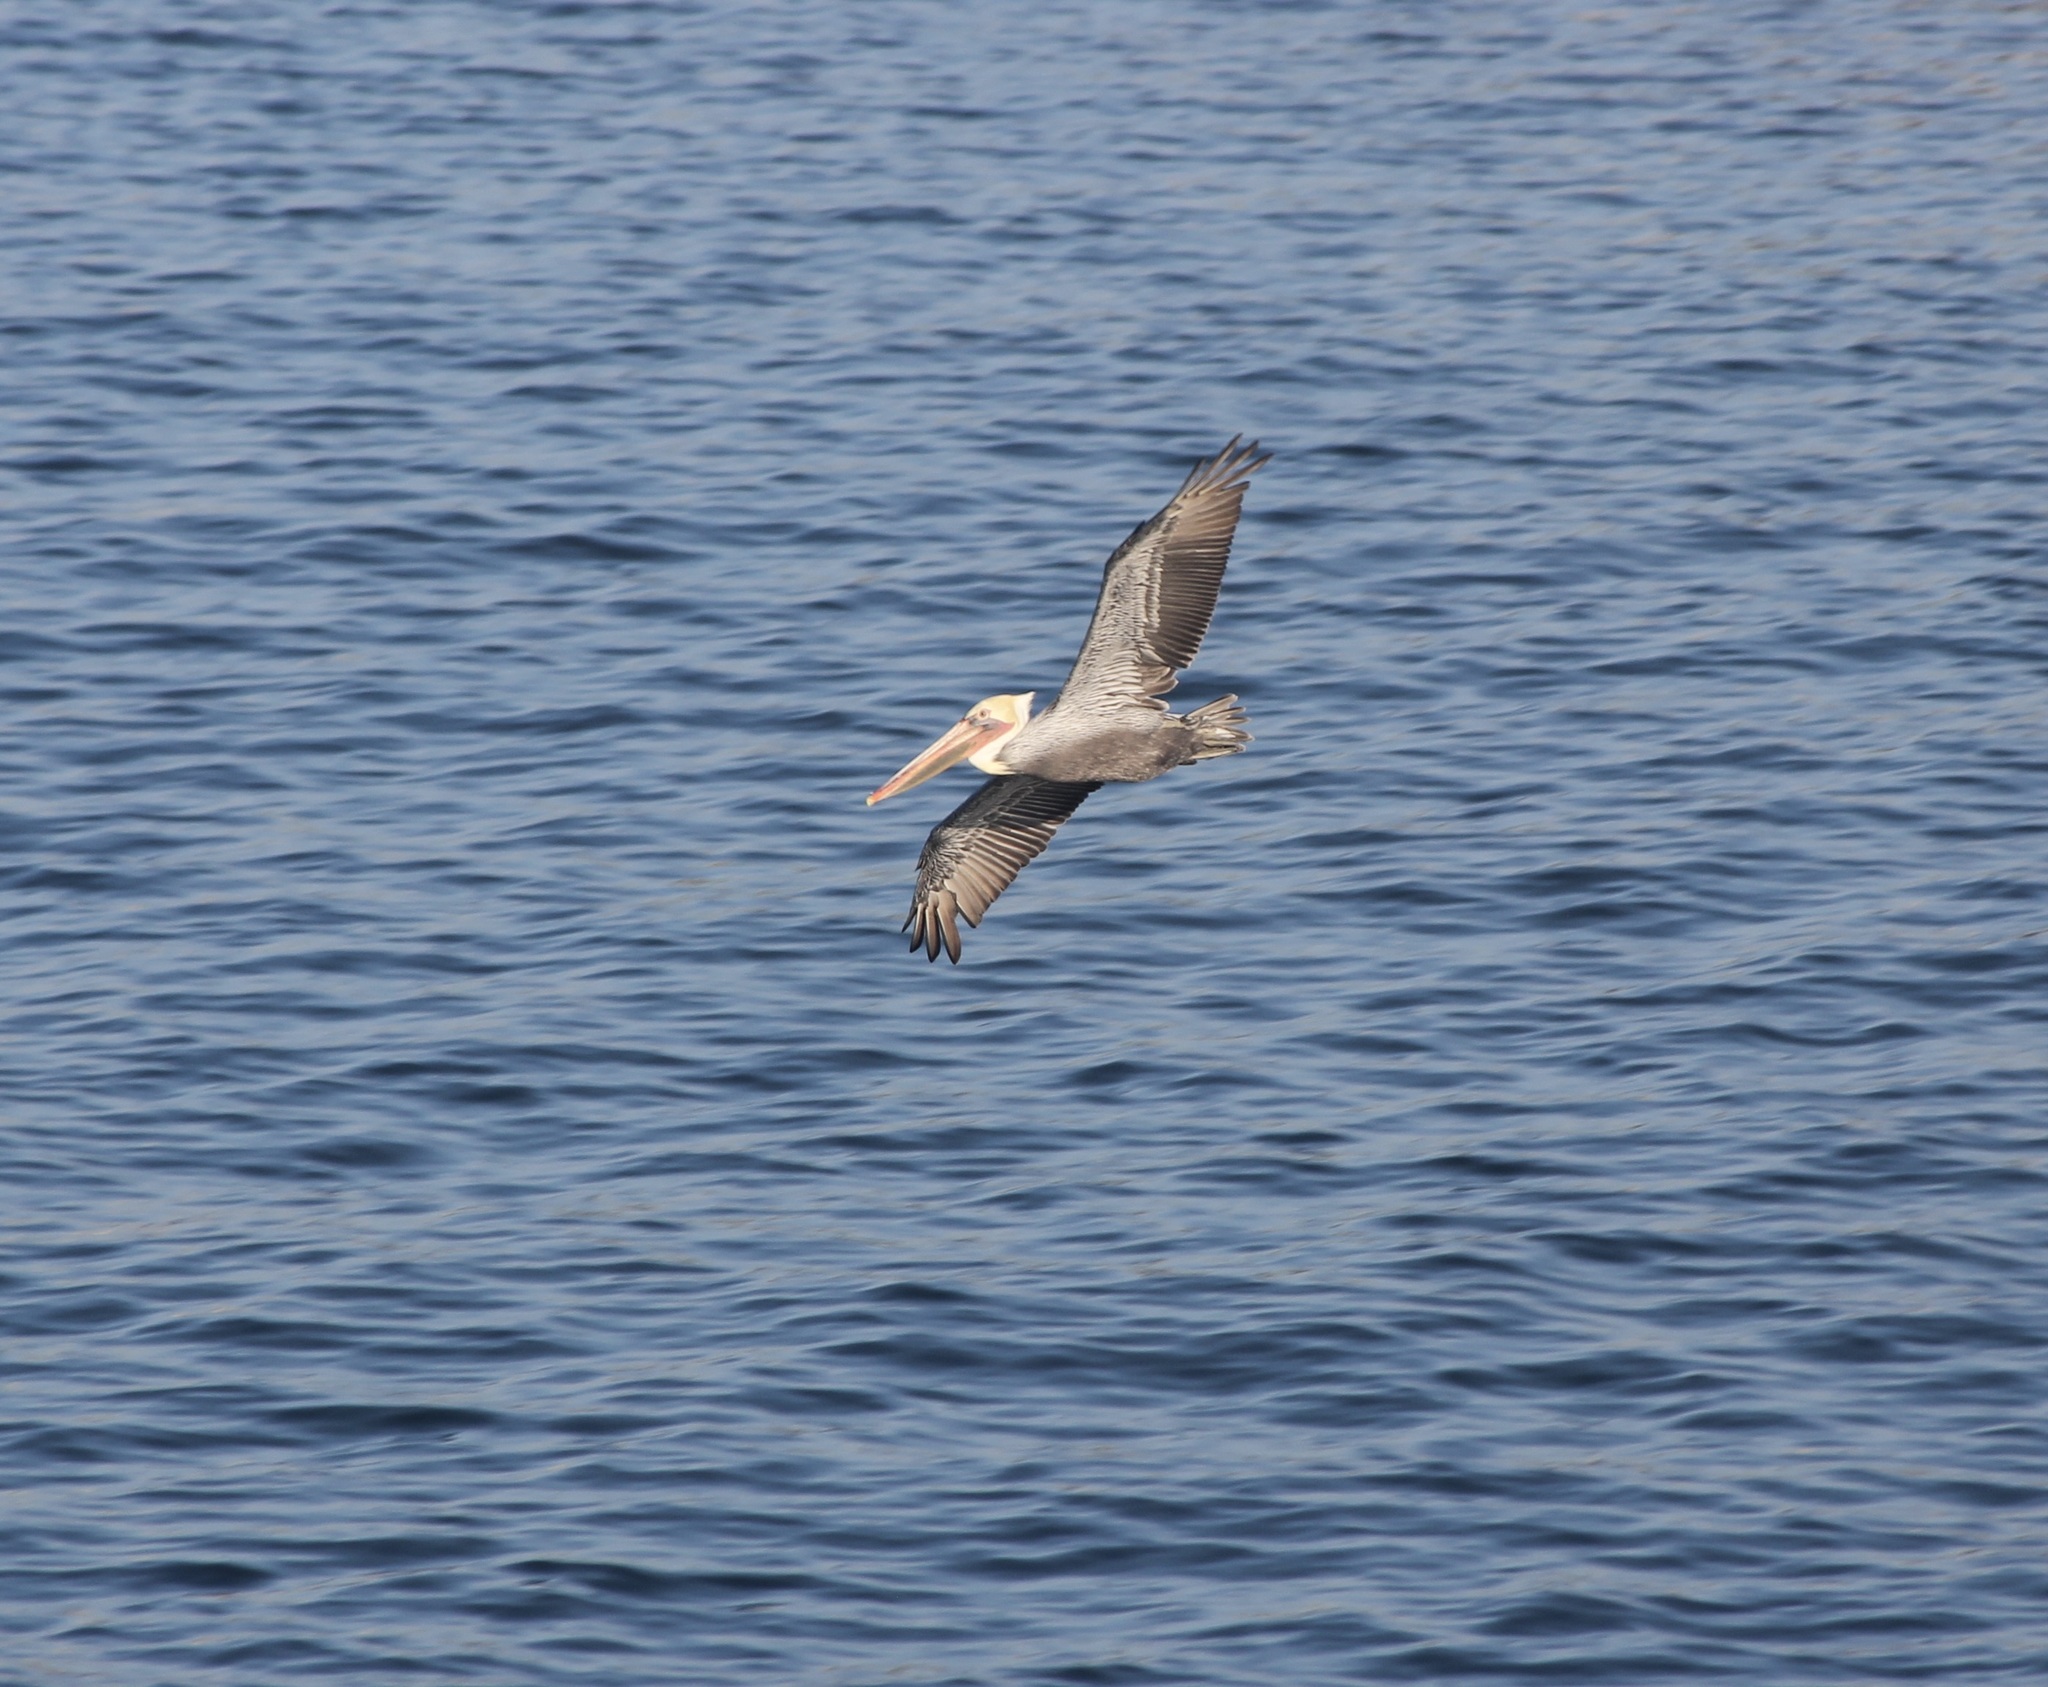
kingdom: Animalia
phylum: Chordata
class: Aves
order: Pelecaniformes
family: Pelecanidae
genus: Pelecanus
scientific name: Pelecanus occidentalis
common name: Brown pelican
